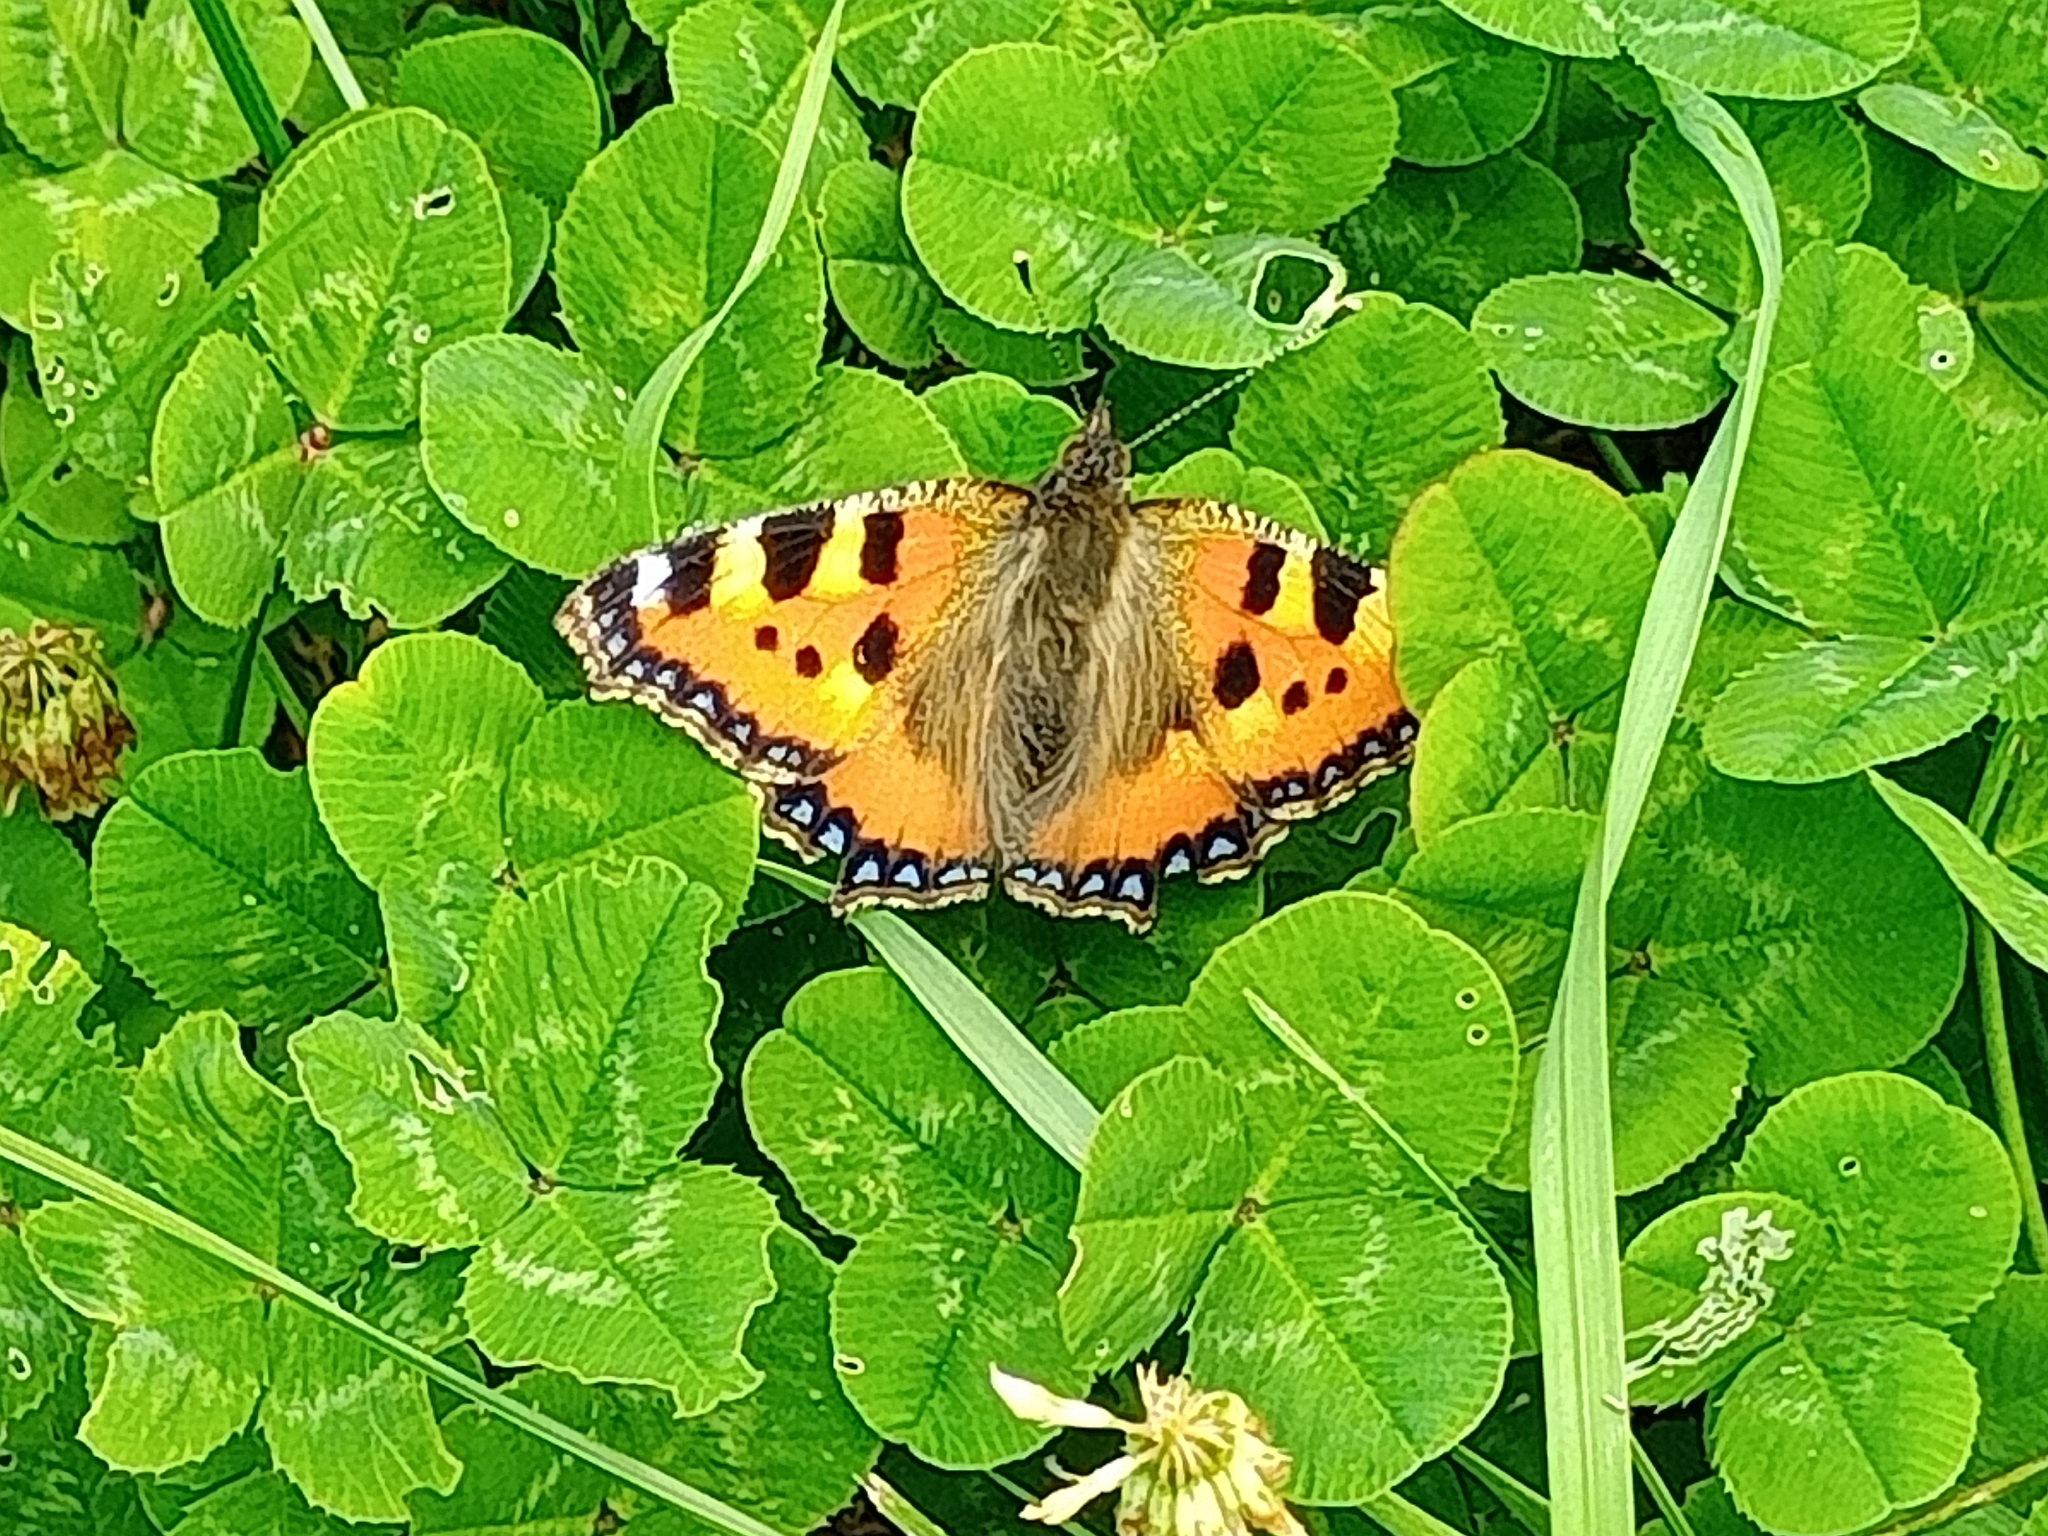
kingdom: Animalia
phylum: Arthropoda
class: Insecta
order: Lepidoptera
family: Nymphalidae
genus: Aglais
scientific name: Aglais urticae
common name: Small tortoiseshell
